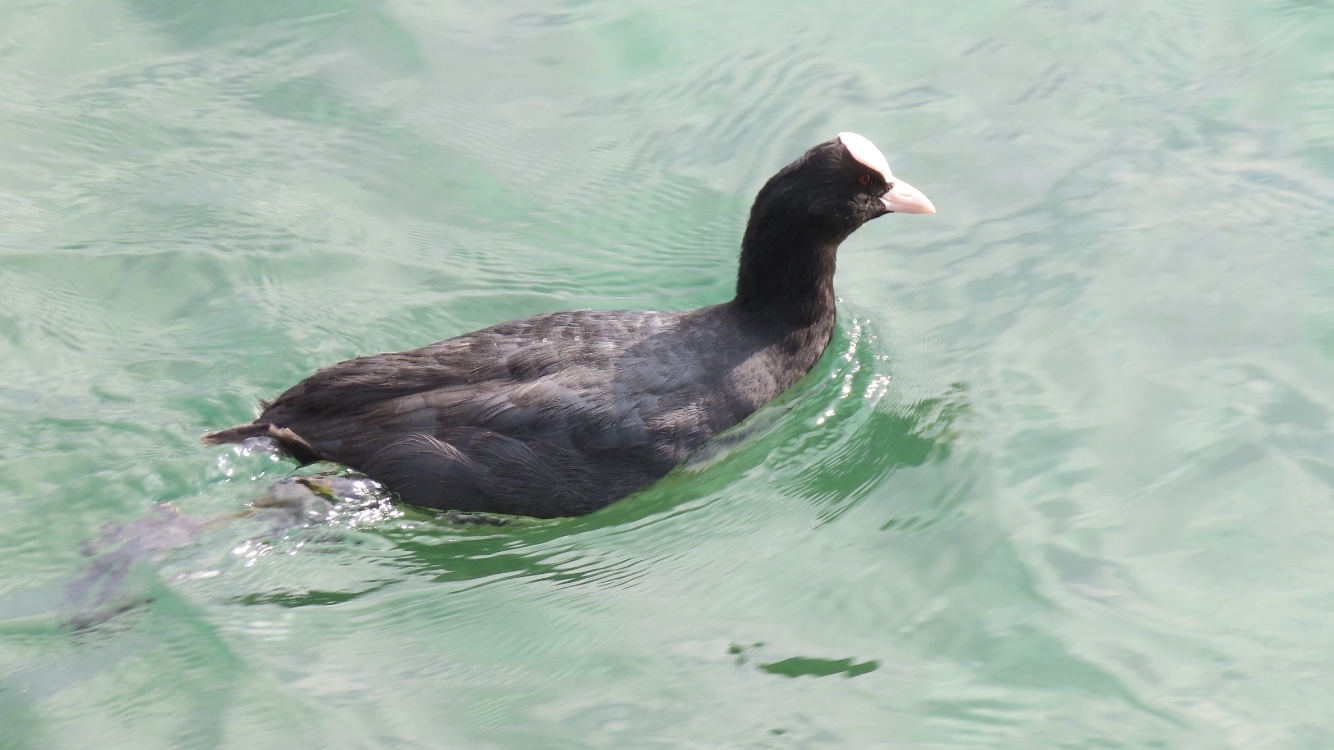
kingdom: Animalia
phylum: Chordata
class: Aves
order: Gruiformes
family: Rallidae
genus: Fulica
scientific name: Fulica atra
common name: Eurasian coot
